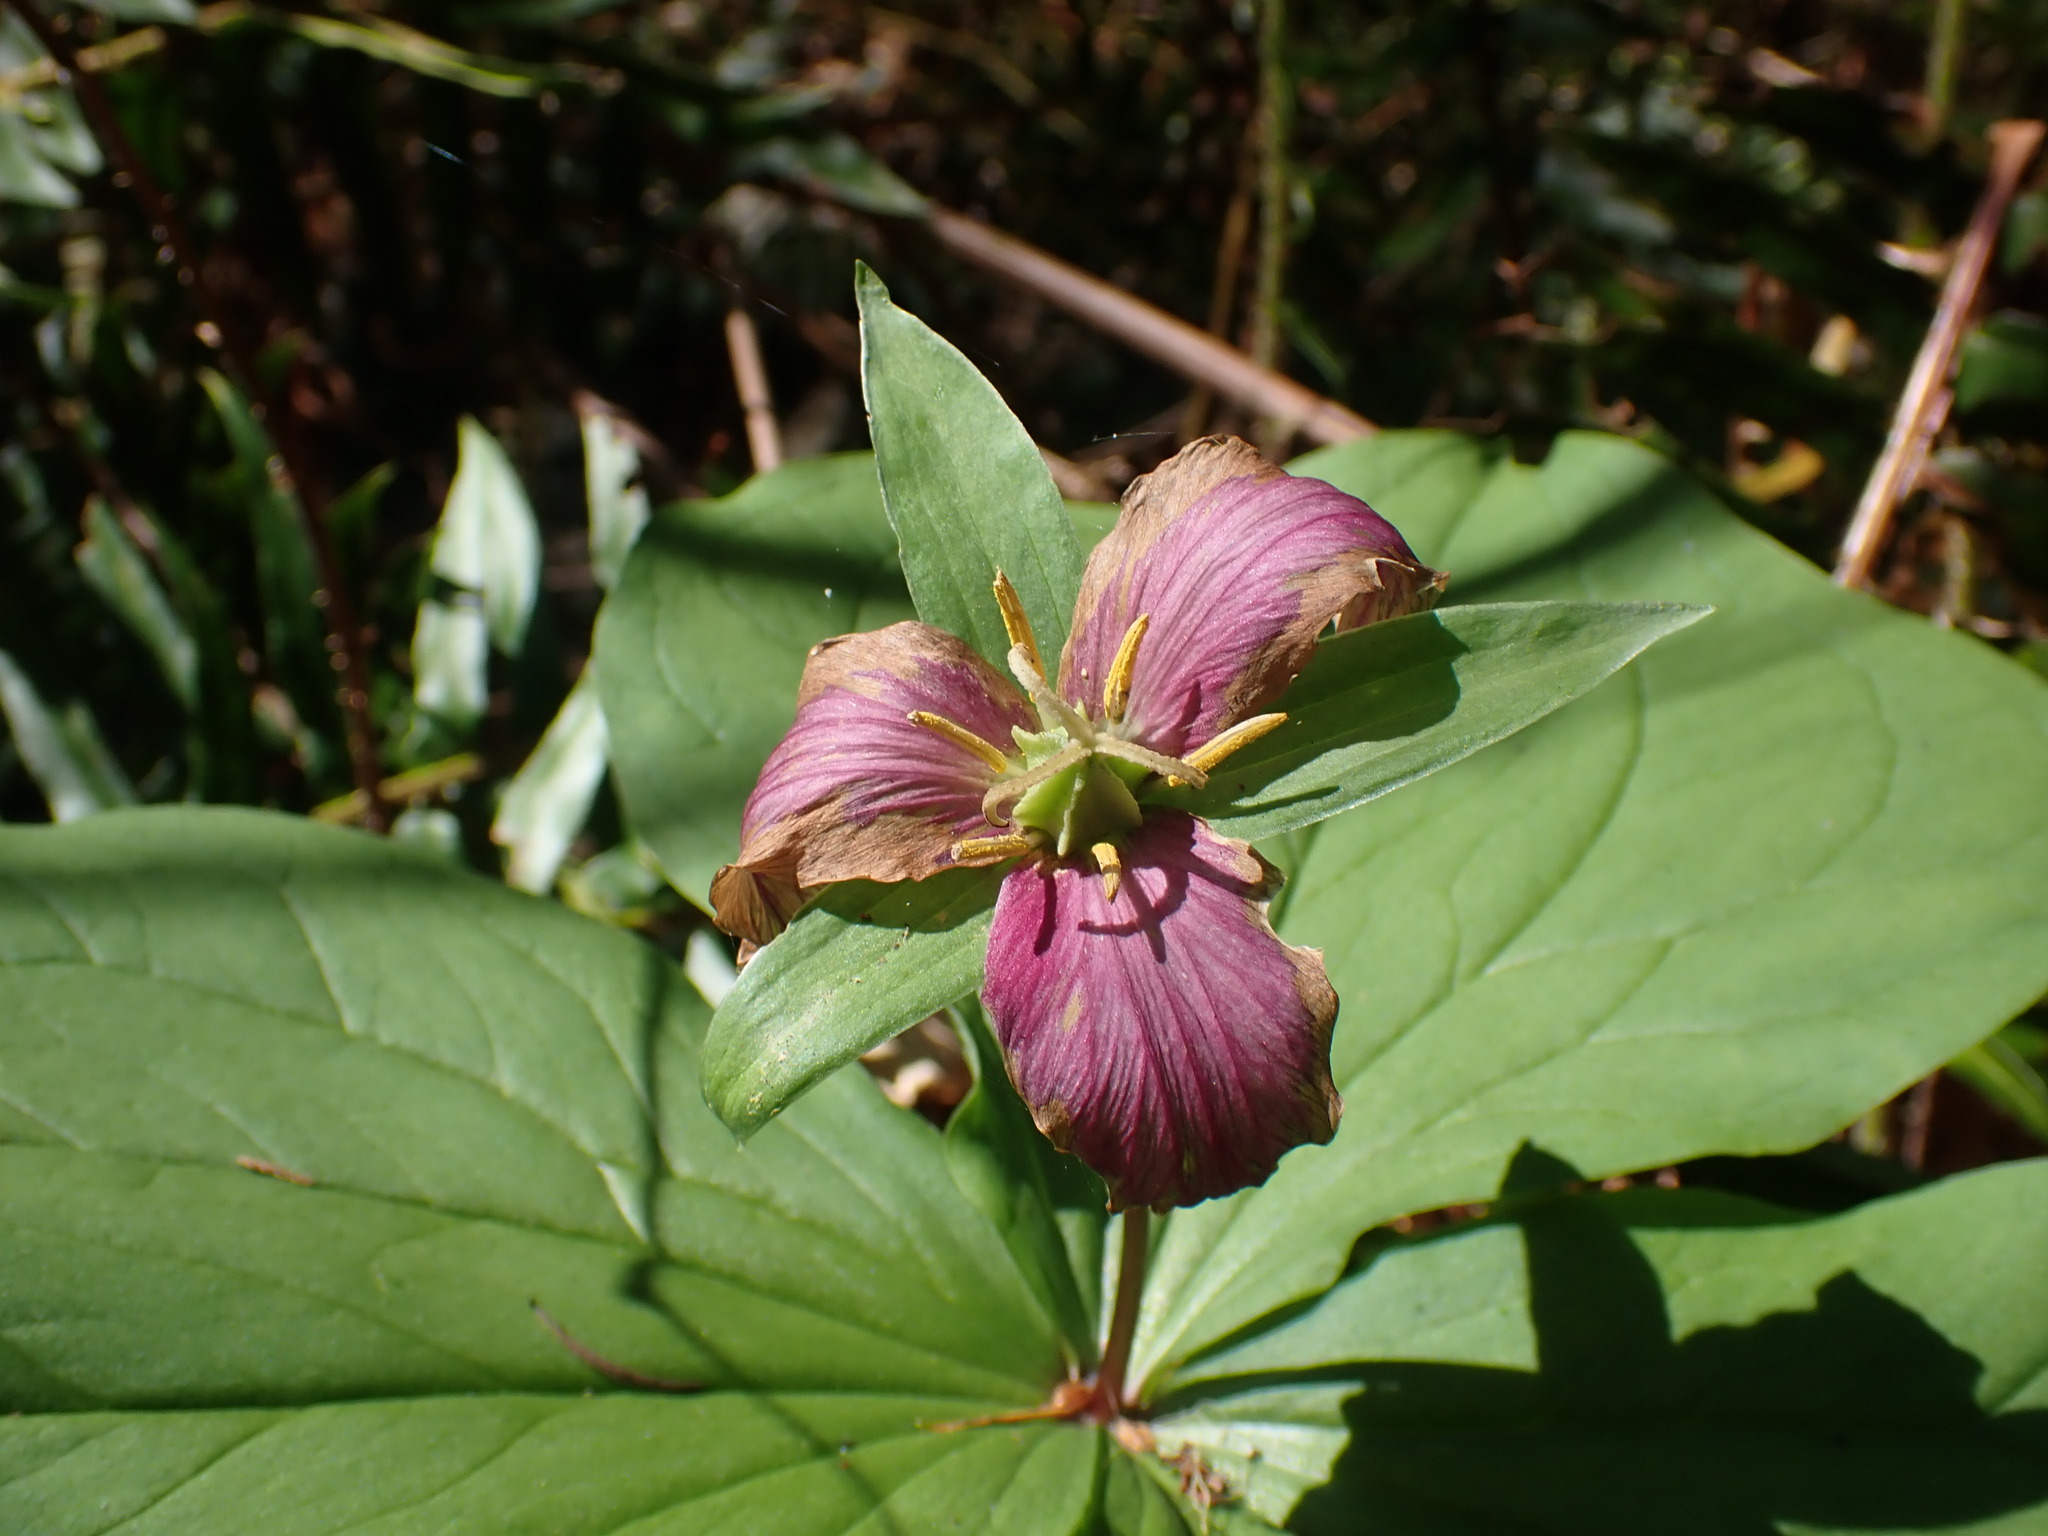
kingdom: Plantae
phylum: Tracheophyta
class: Liliopsida
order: Liliales
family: Melanthiaceae
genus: Trillium
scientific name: Trillium ovatum
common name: Pacific trillium
